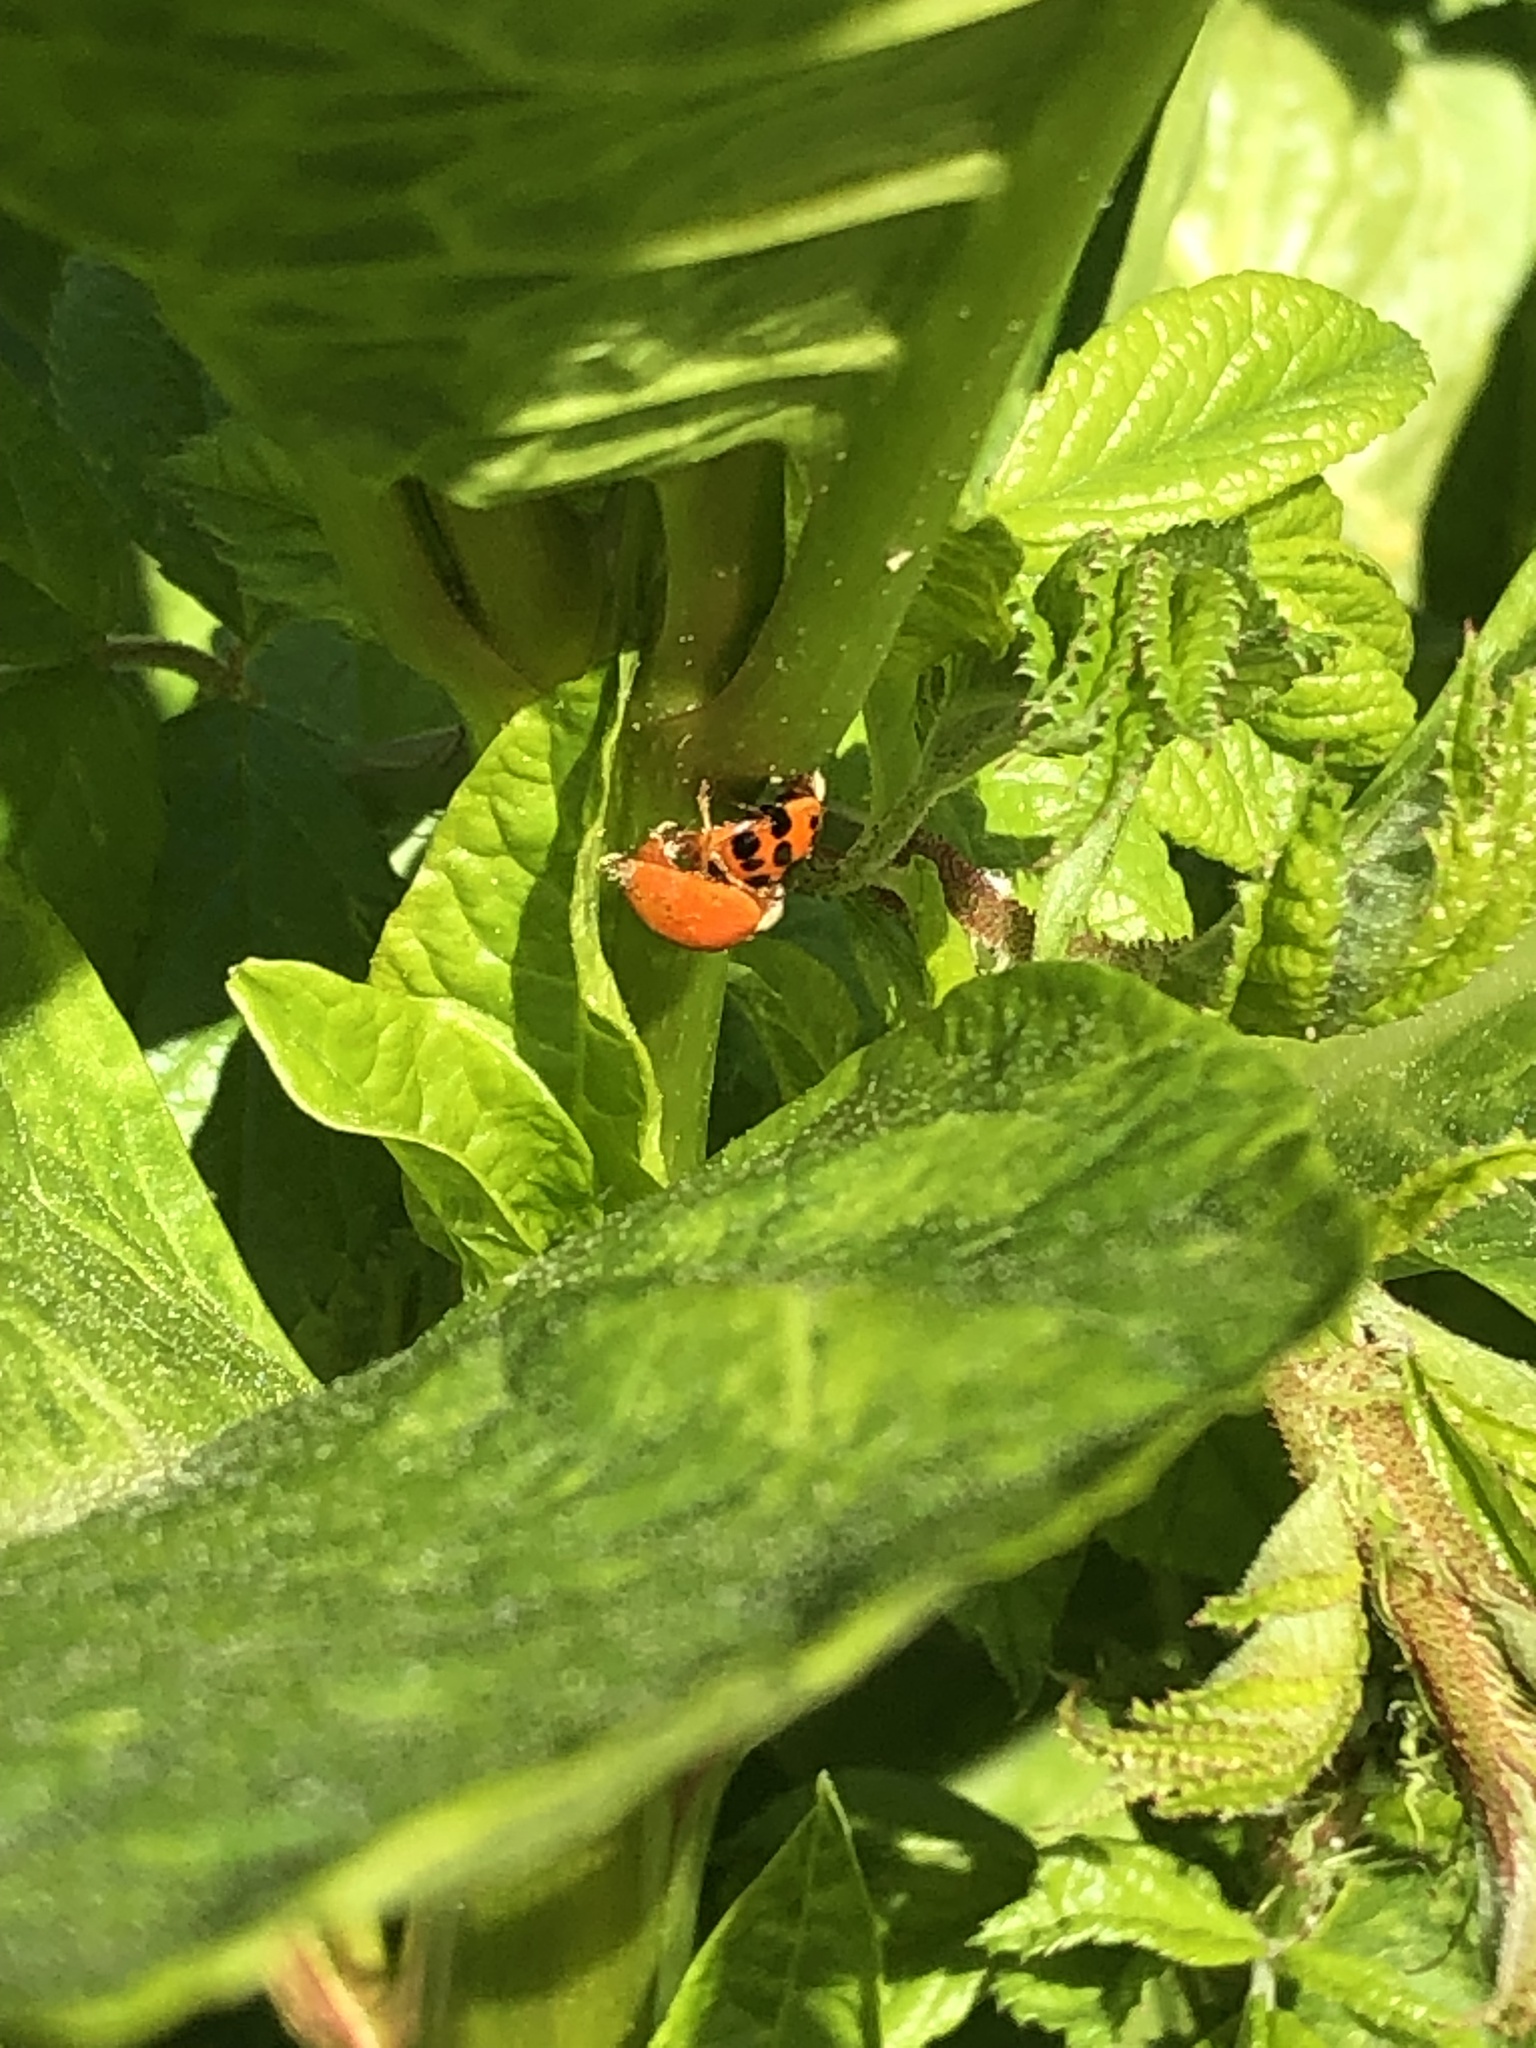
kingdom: Animalia
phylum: Arthropoda
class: Insecta
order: Coleoptera
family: Coccinellidae
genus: Harmonia
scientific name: Harmonia axyridis
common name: Harlequin ladybird
